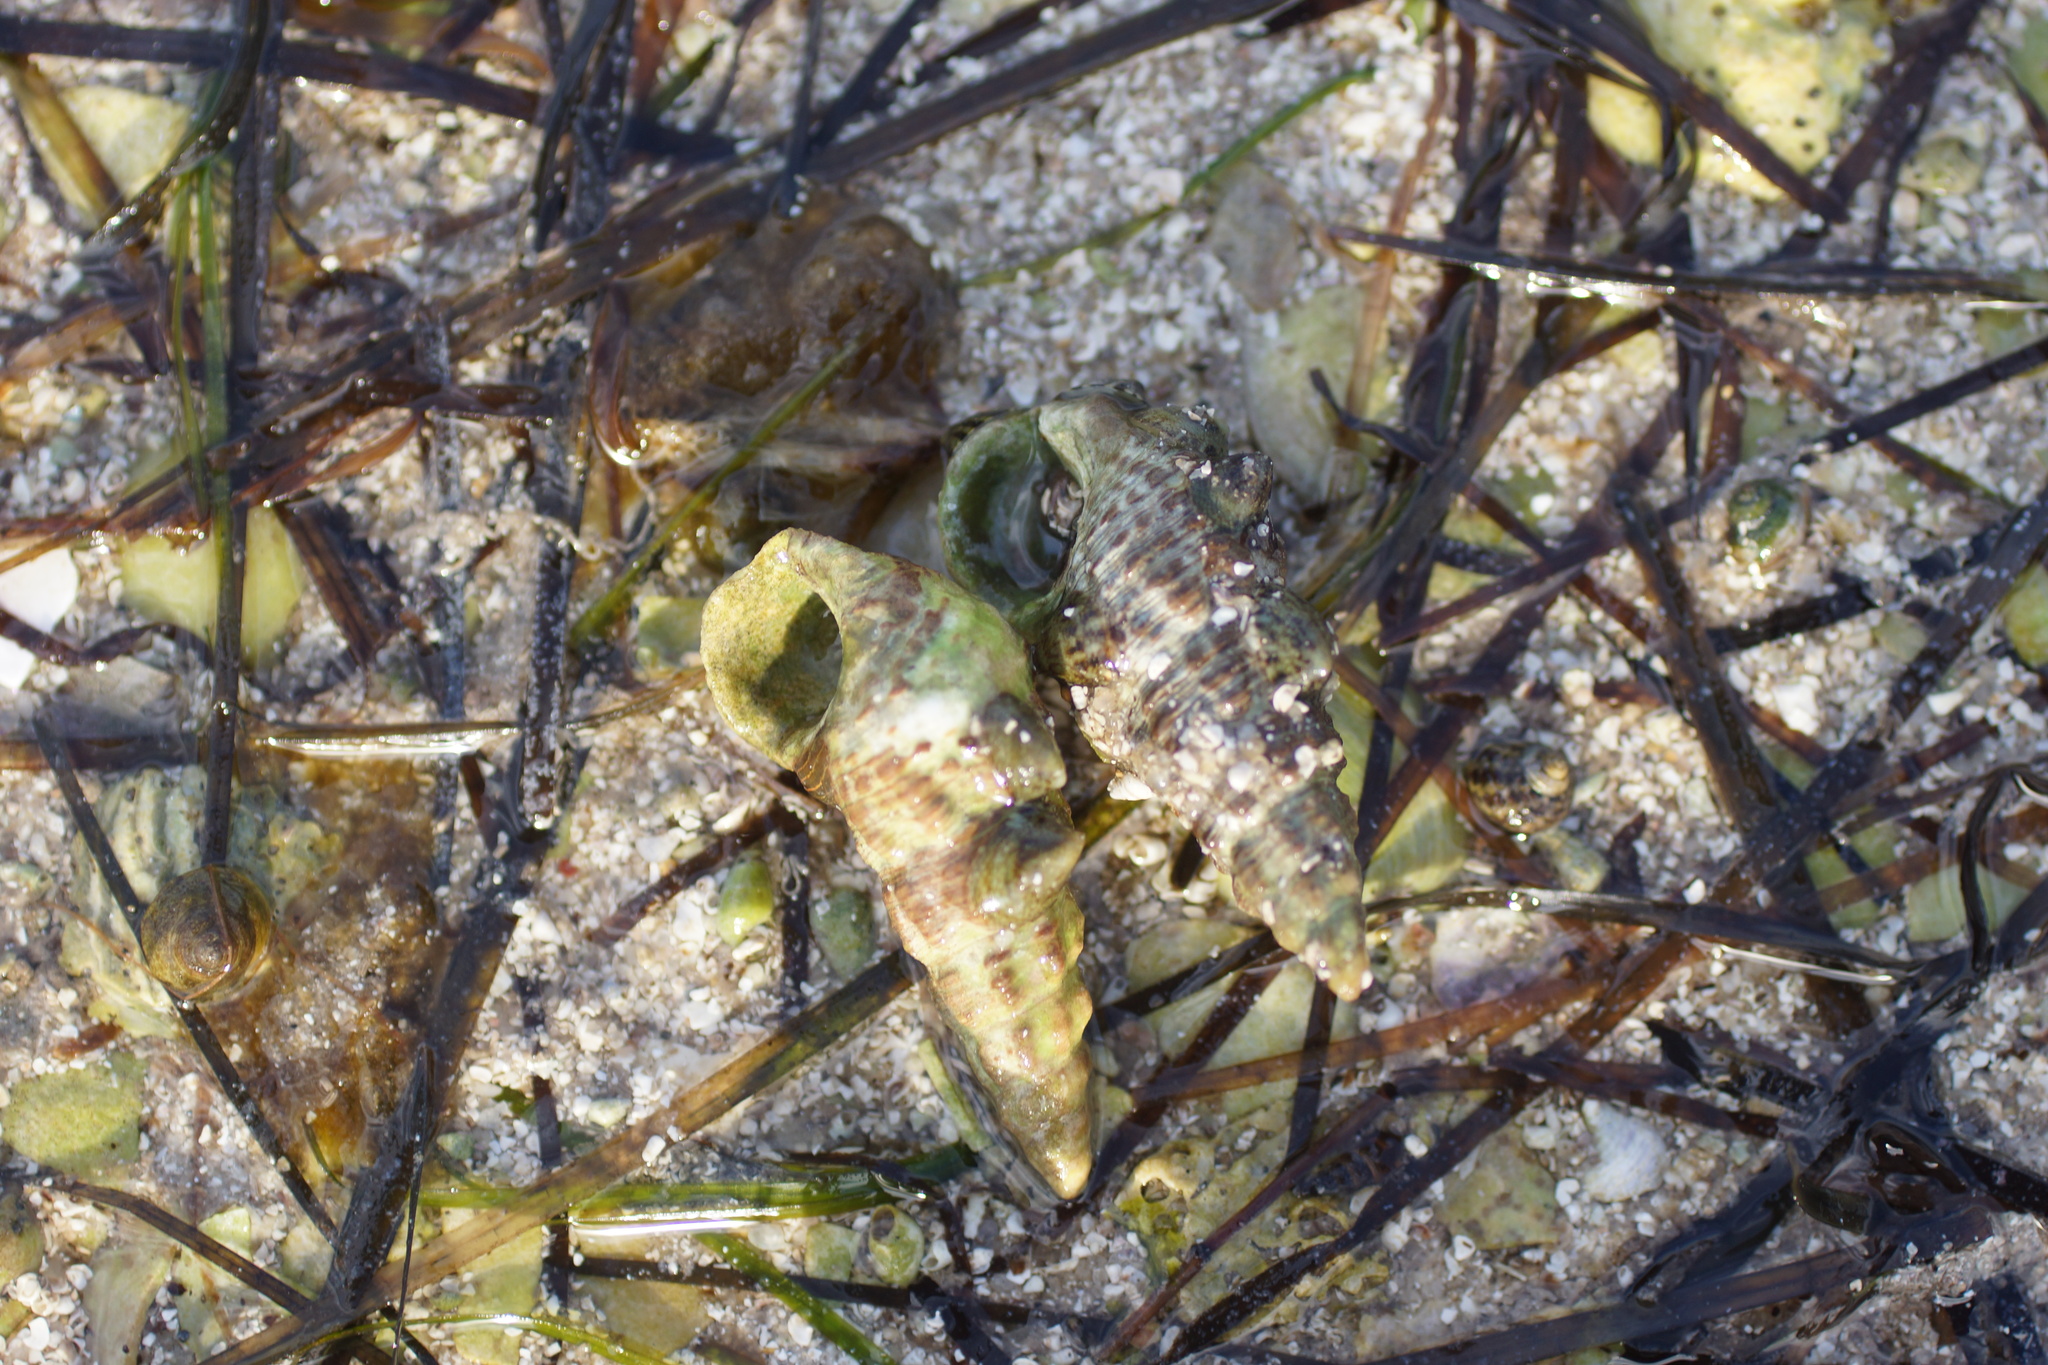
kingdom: Animalia
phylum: Mollusca
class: Gastropoda
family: Batillariidae
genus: Batillaria
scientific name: Batillaria australis
